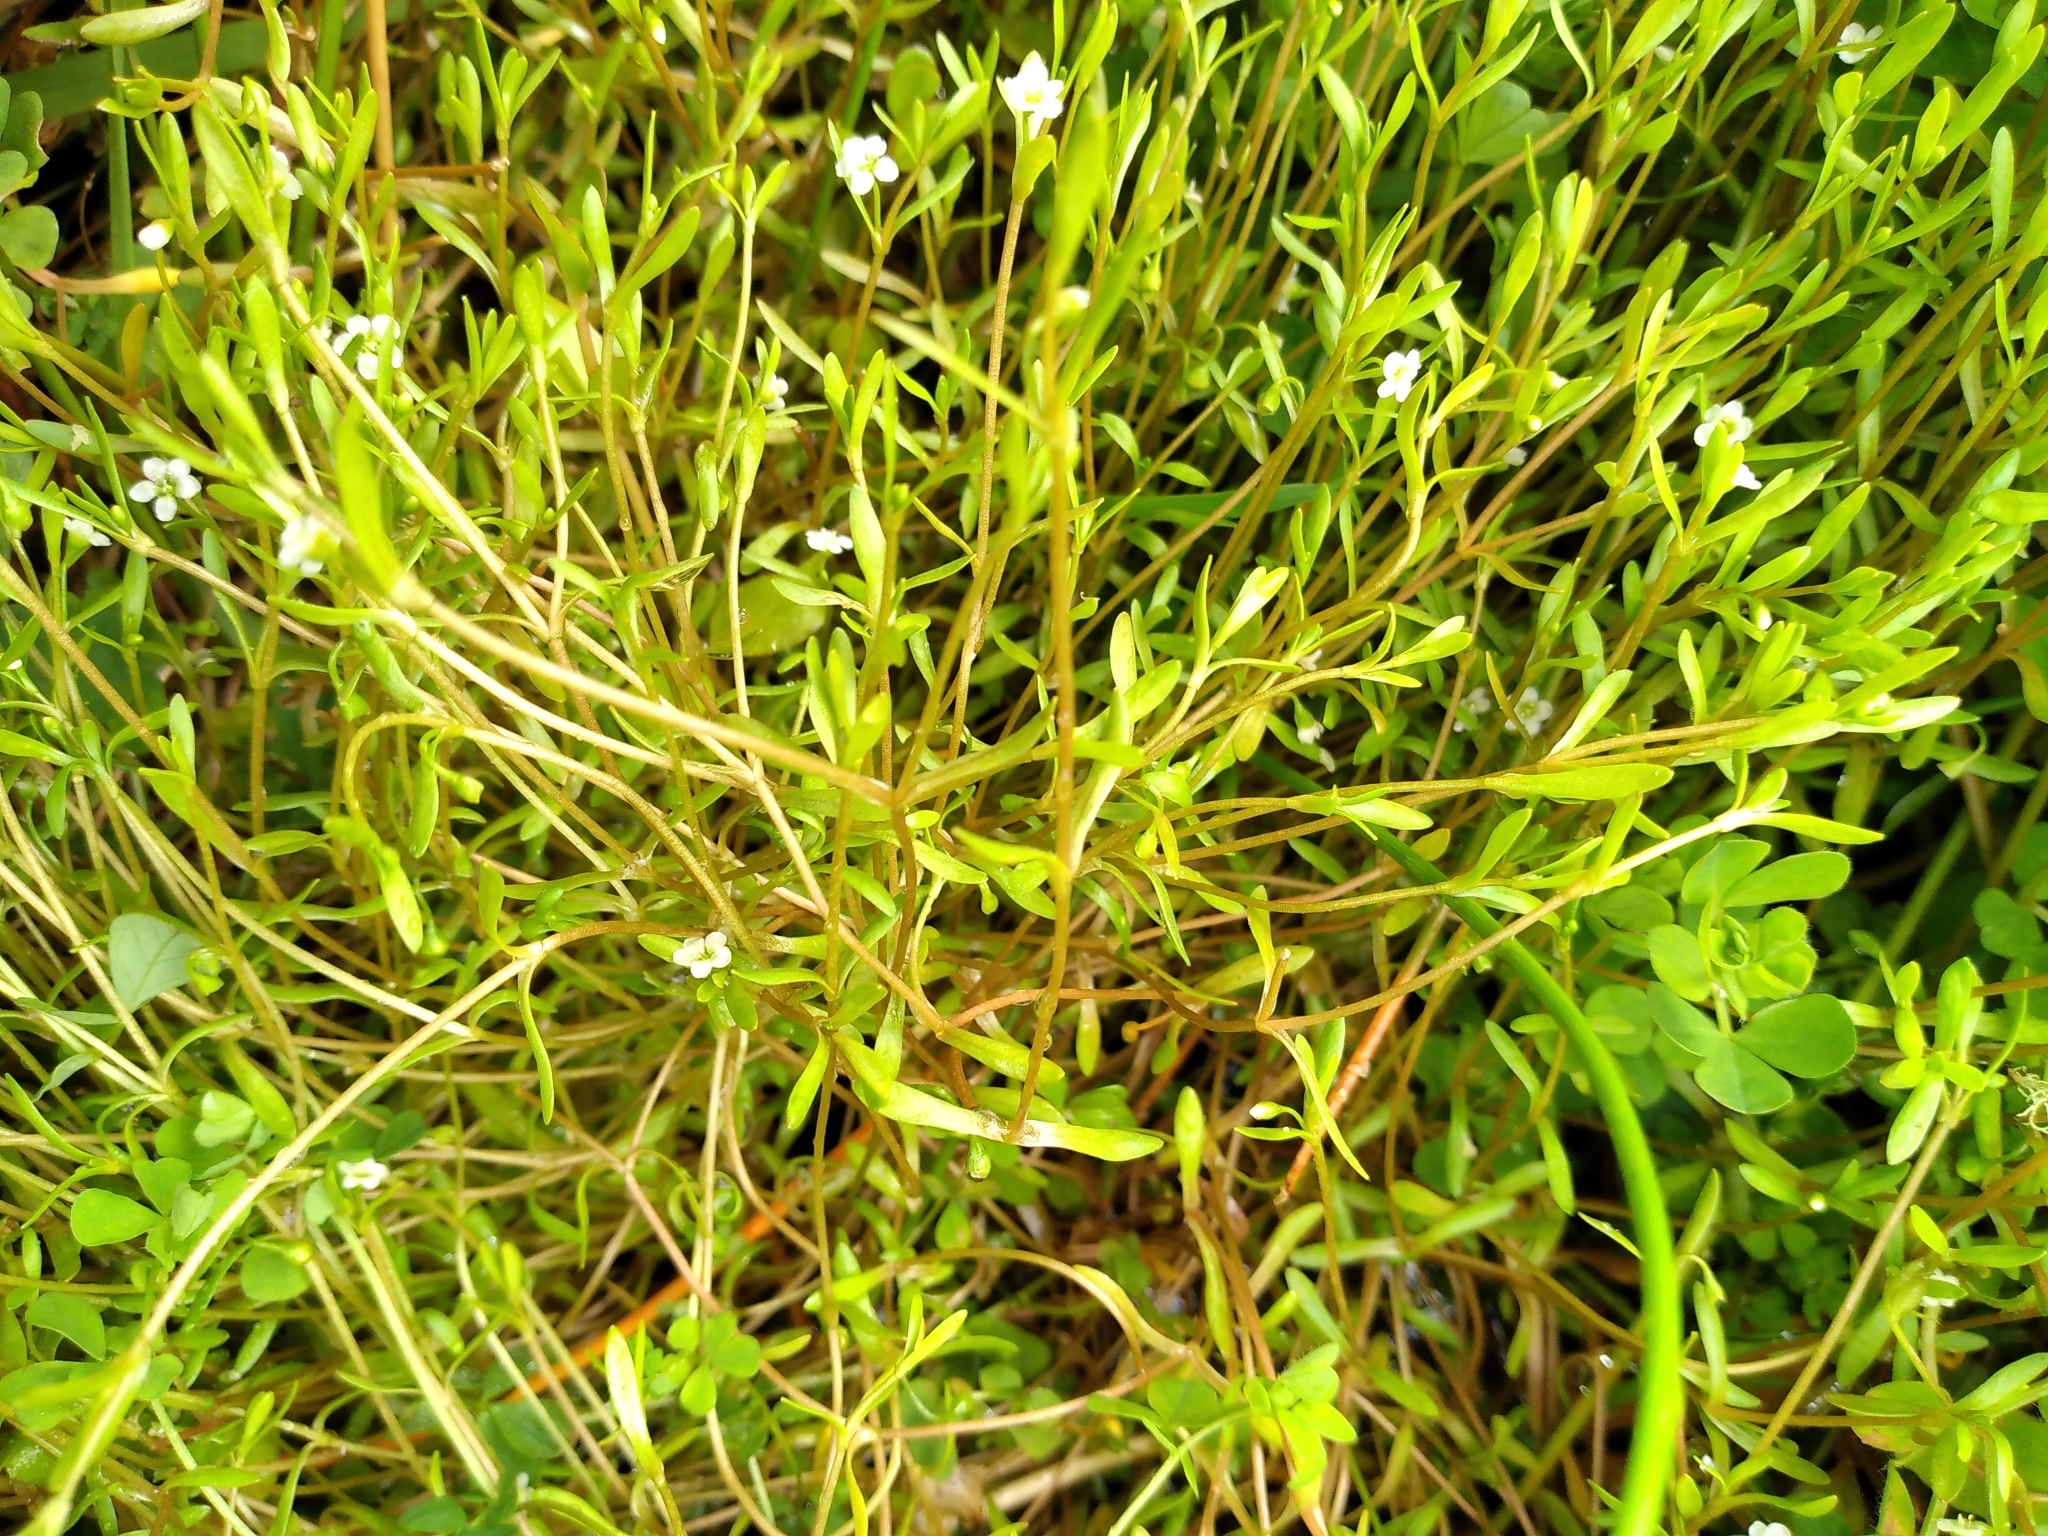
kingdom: Plantae
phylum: Tracheophyta
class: Magnoliopsida
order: Caryophyllales
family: Montiaceae
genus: Montia
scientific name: Montia fontana
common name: Blinks
